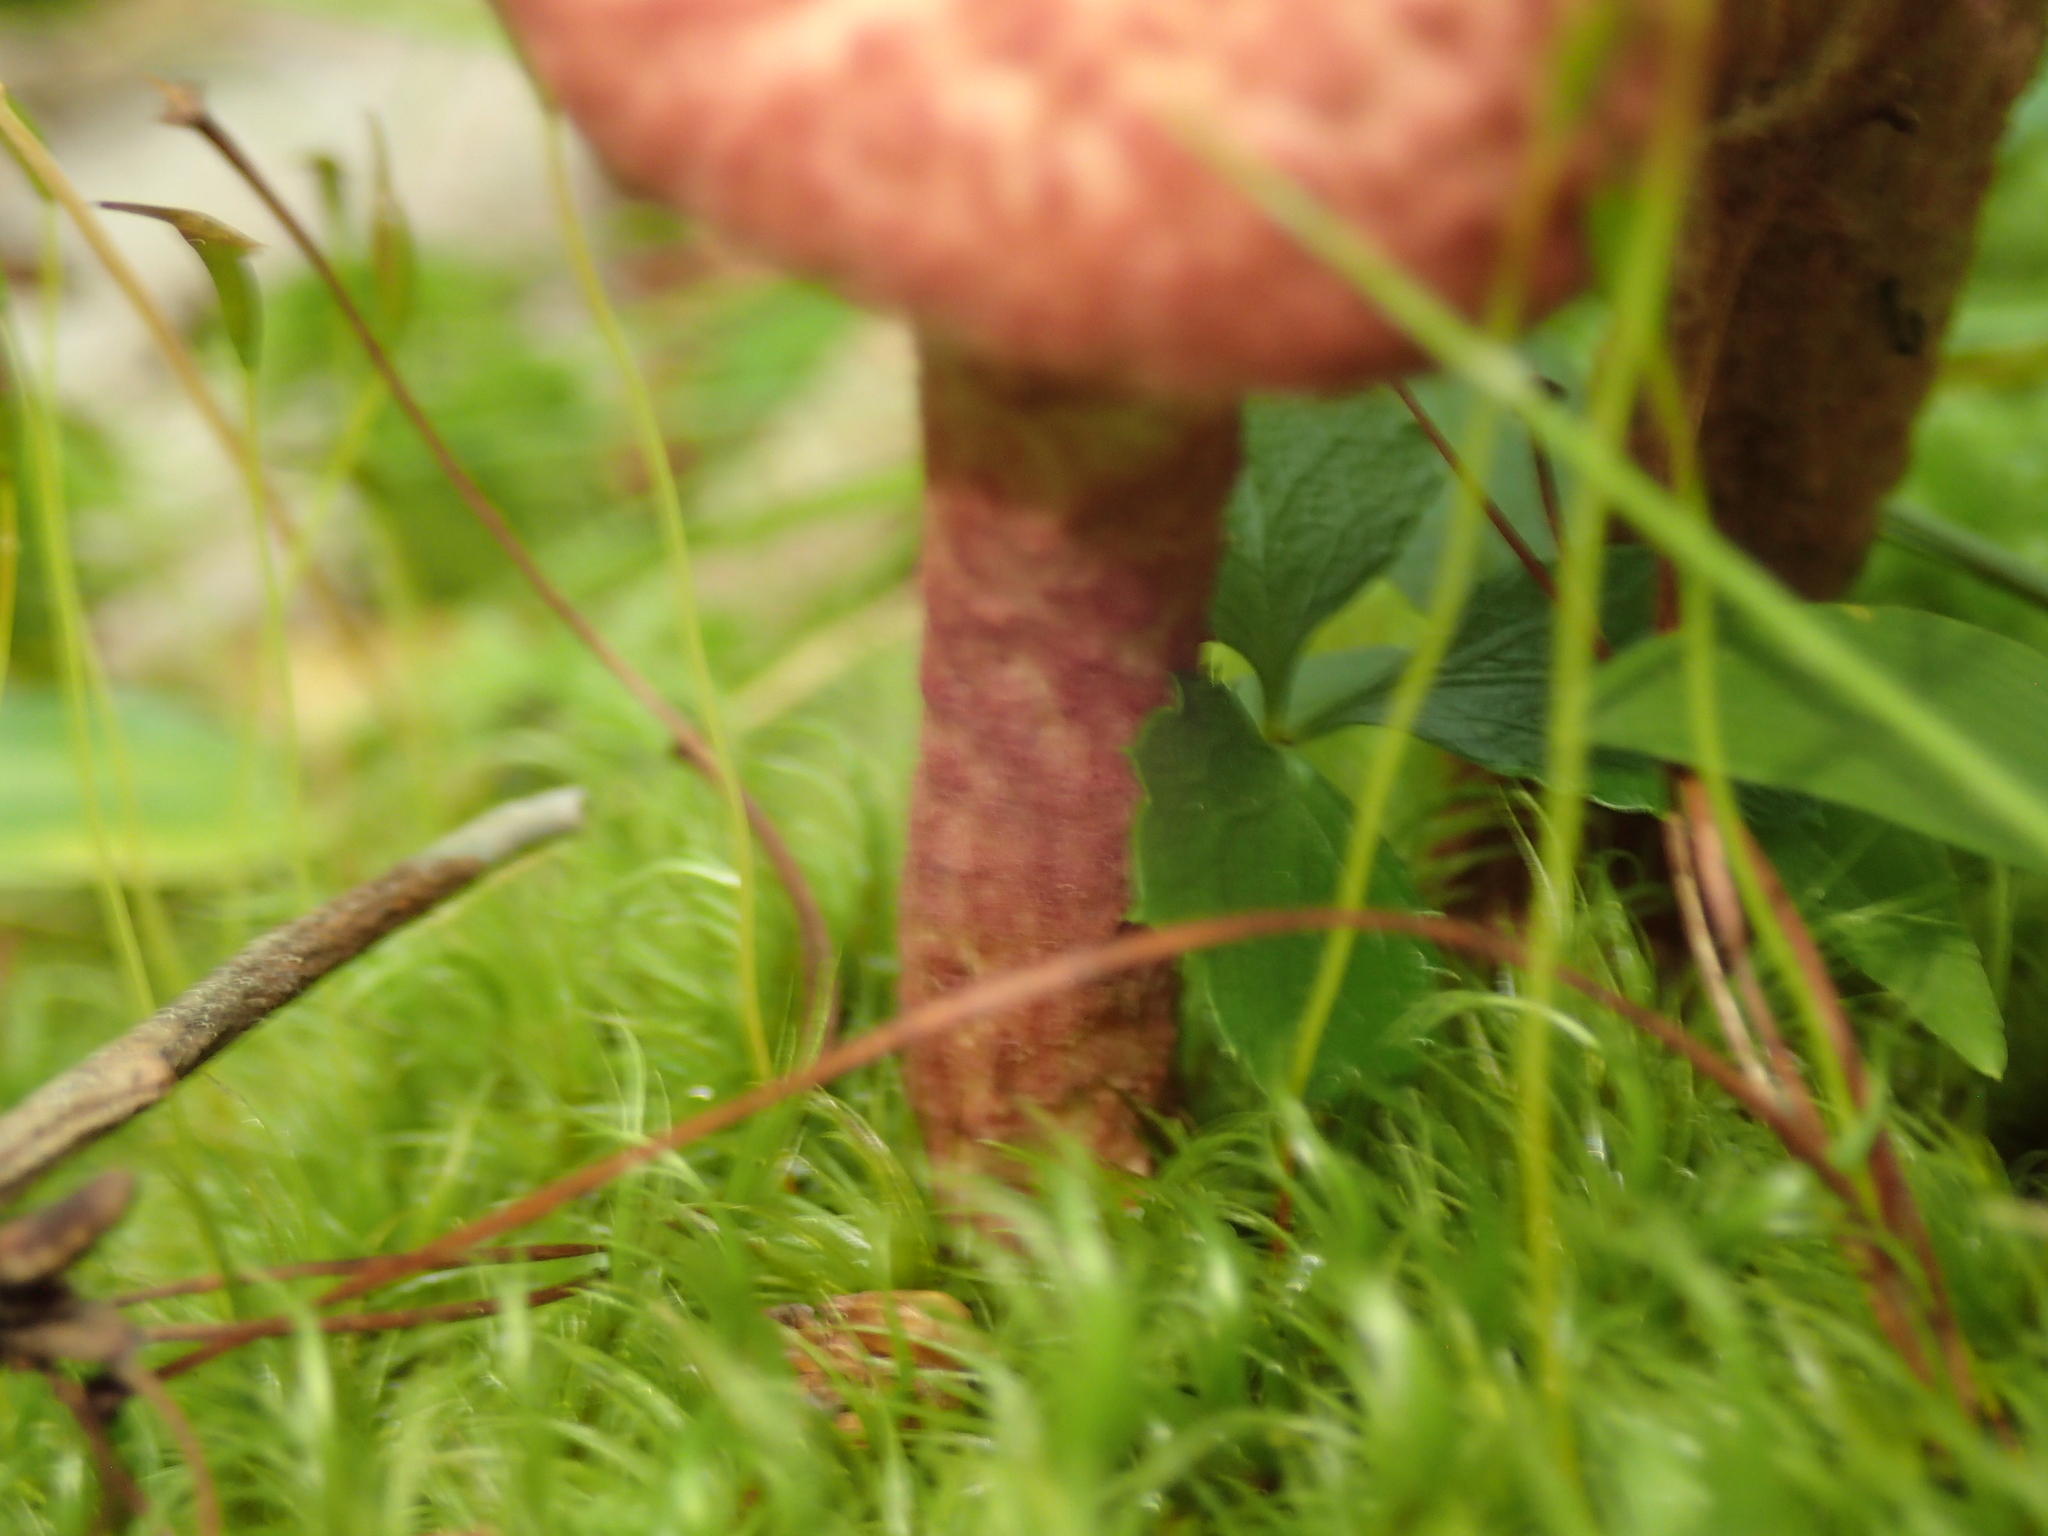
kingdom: Fungi
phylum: Basidiomycota
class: Agaricomycetes
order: Boletales
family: Suillaceae
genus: Suillus
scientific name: Suillus spraguei
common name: Painted suillus
